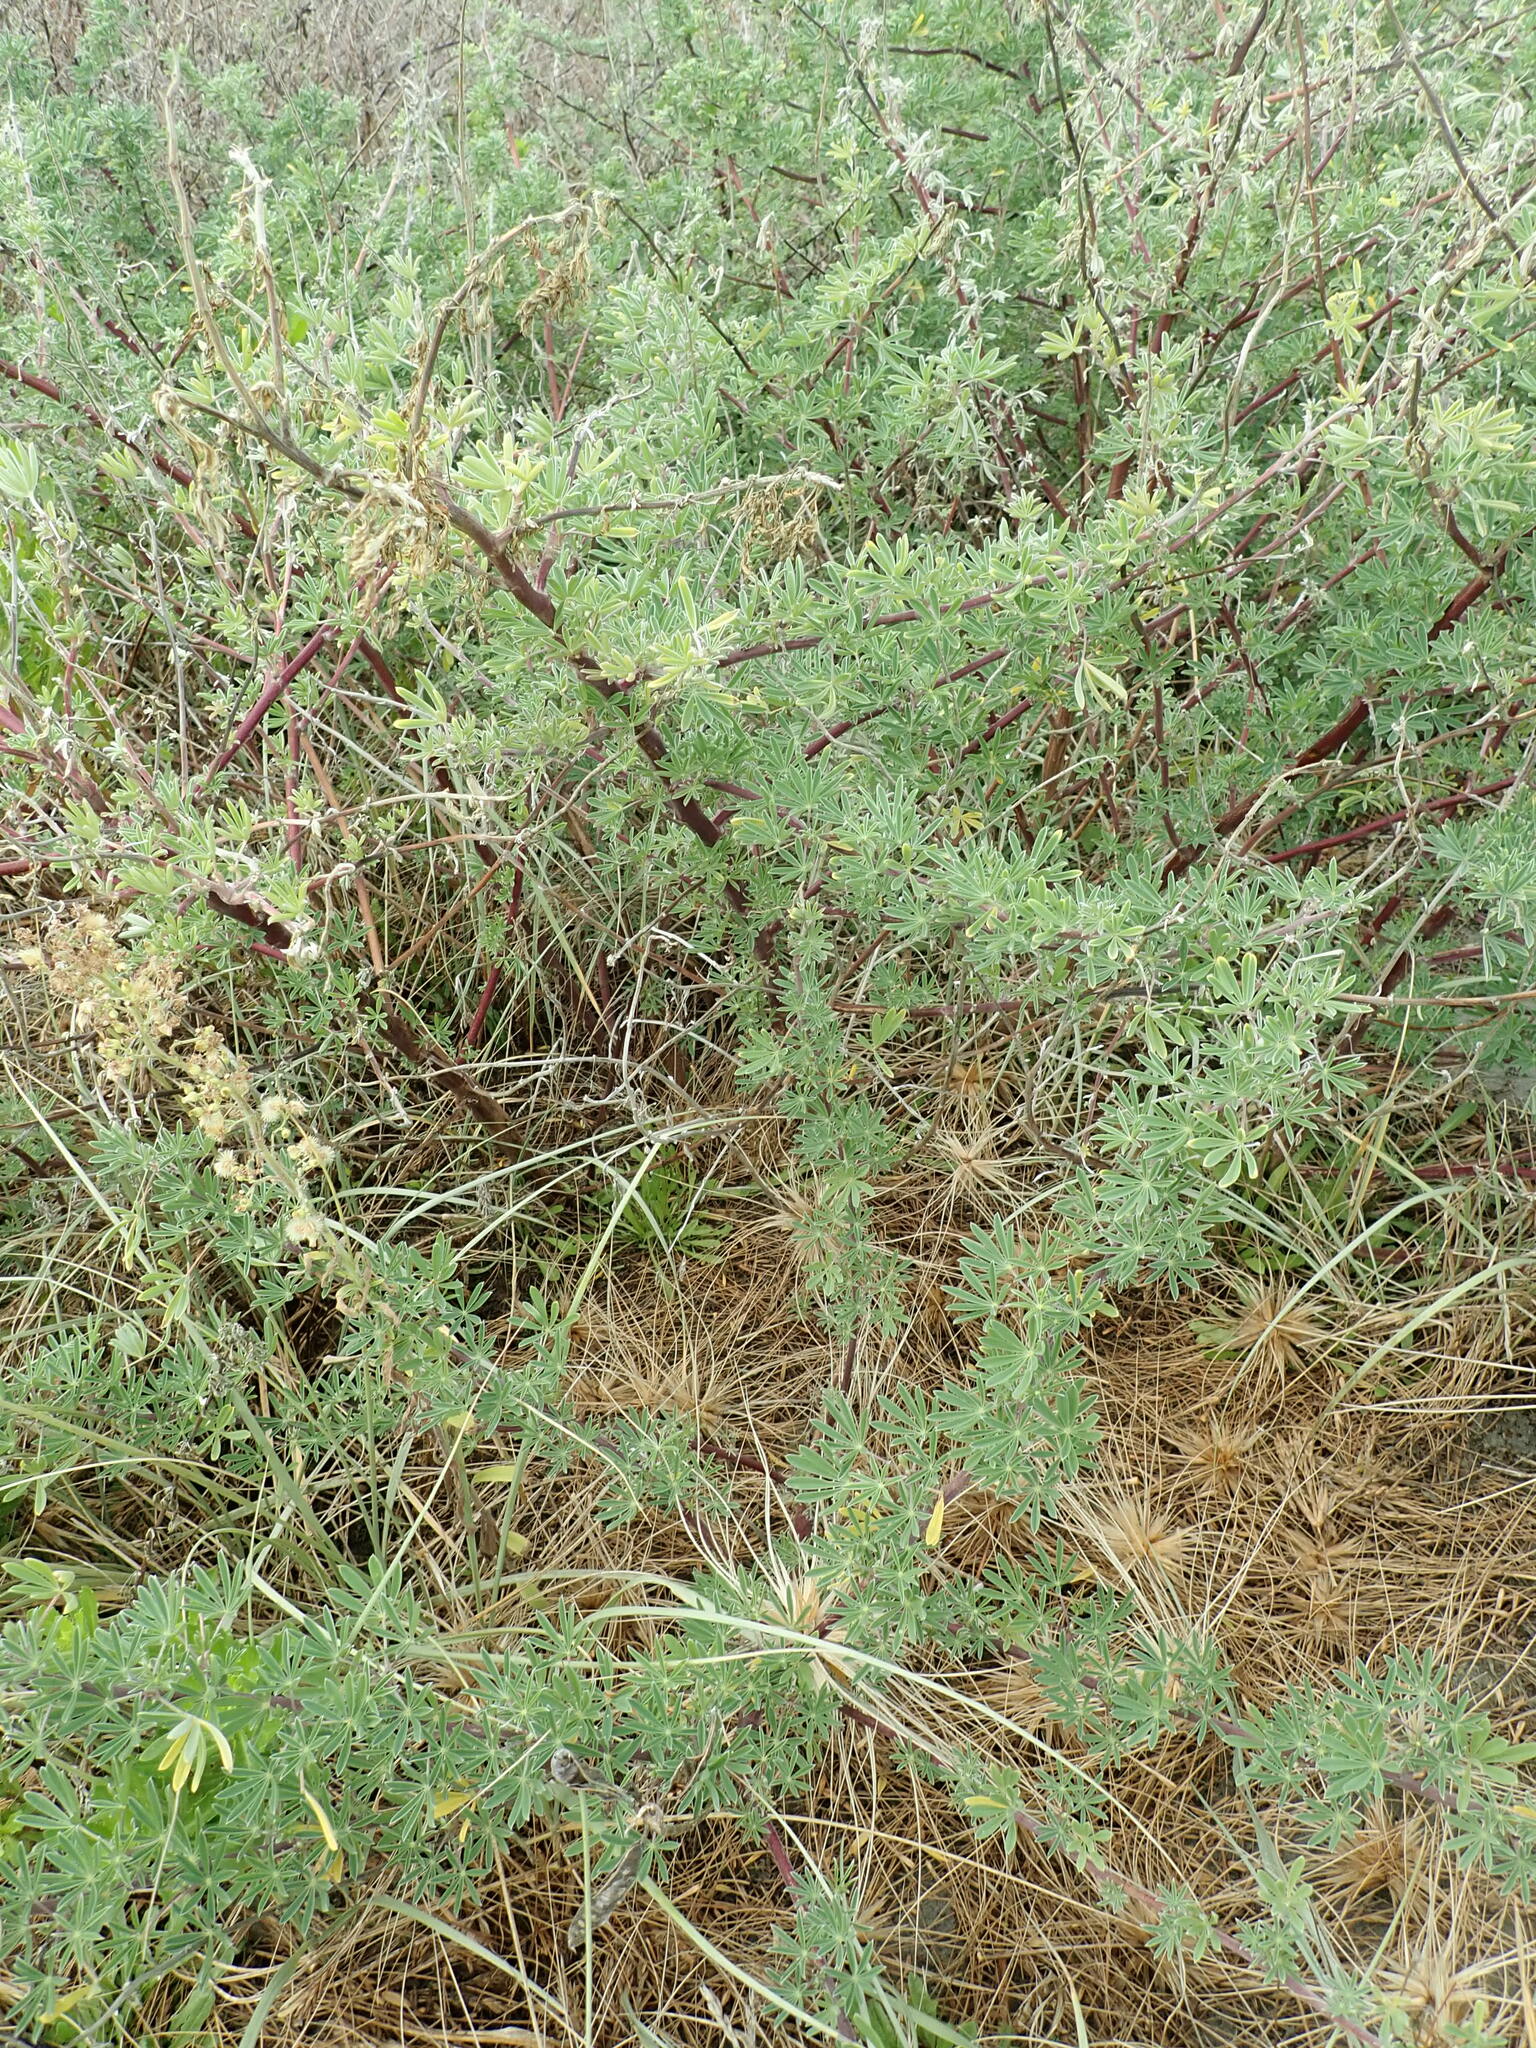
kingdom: Plantae
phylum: Tracheophyta
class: Magnoliopsida
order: Fabales
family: Fabaceae
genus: Lupinus
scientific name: Lupinus arboreus
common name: Yellow bush lupine
